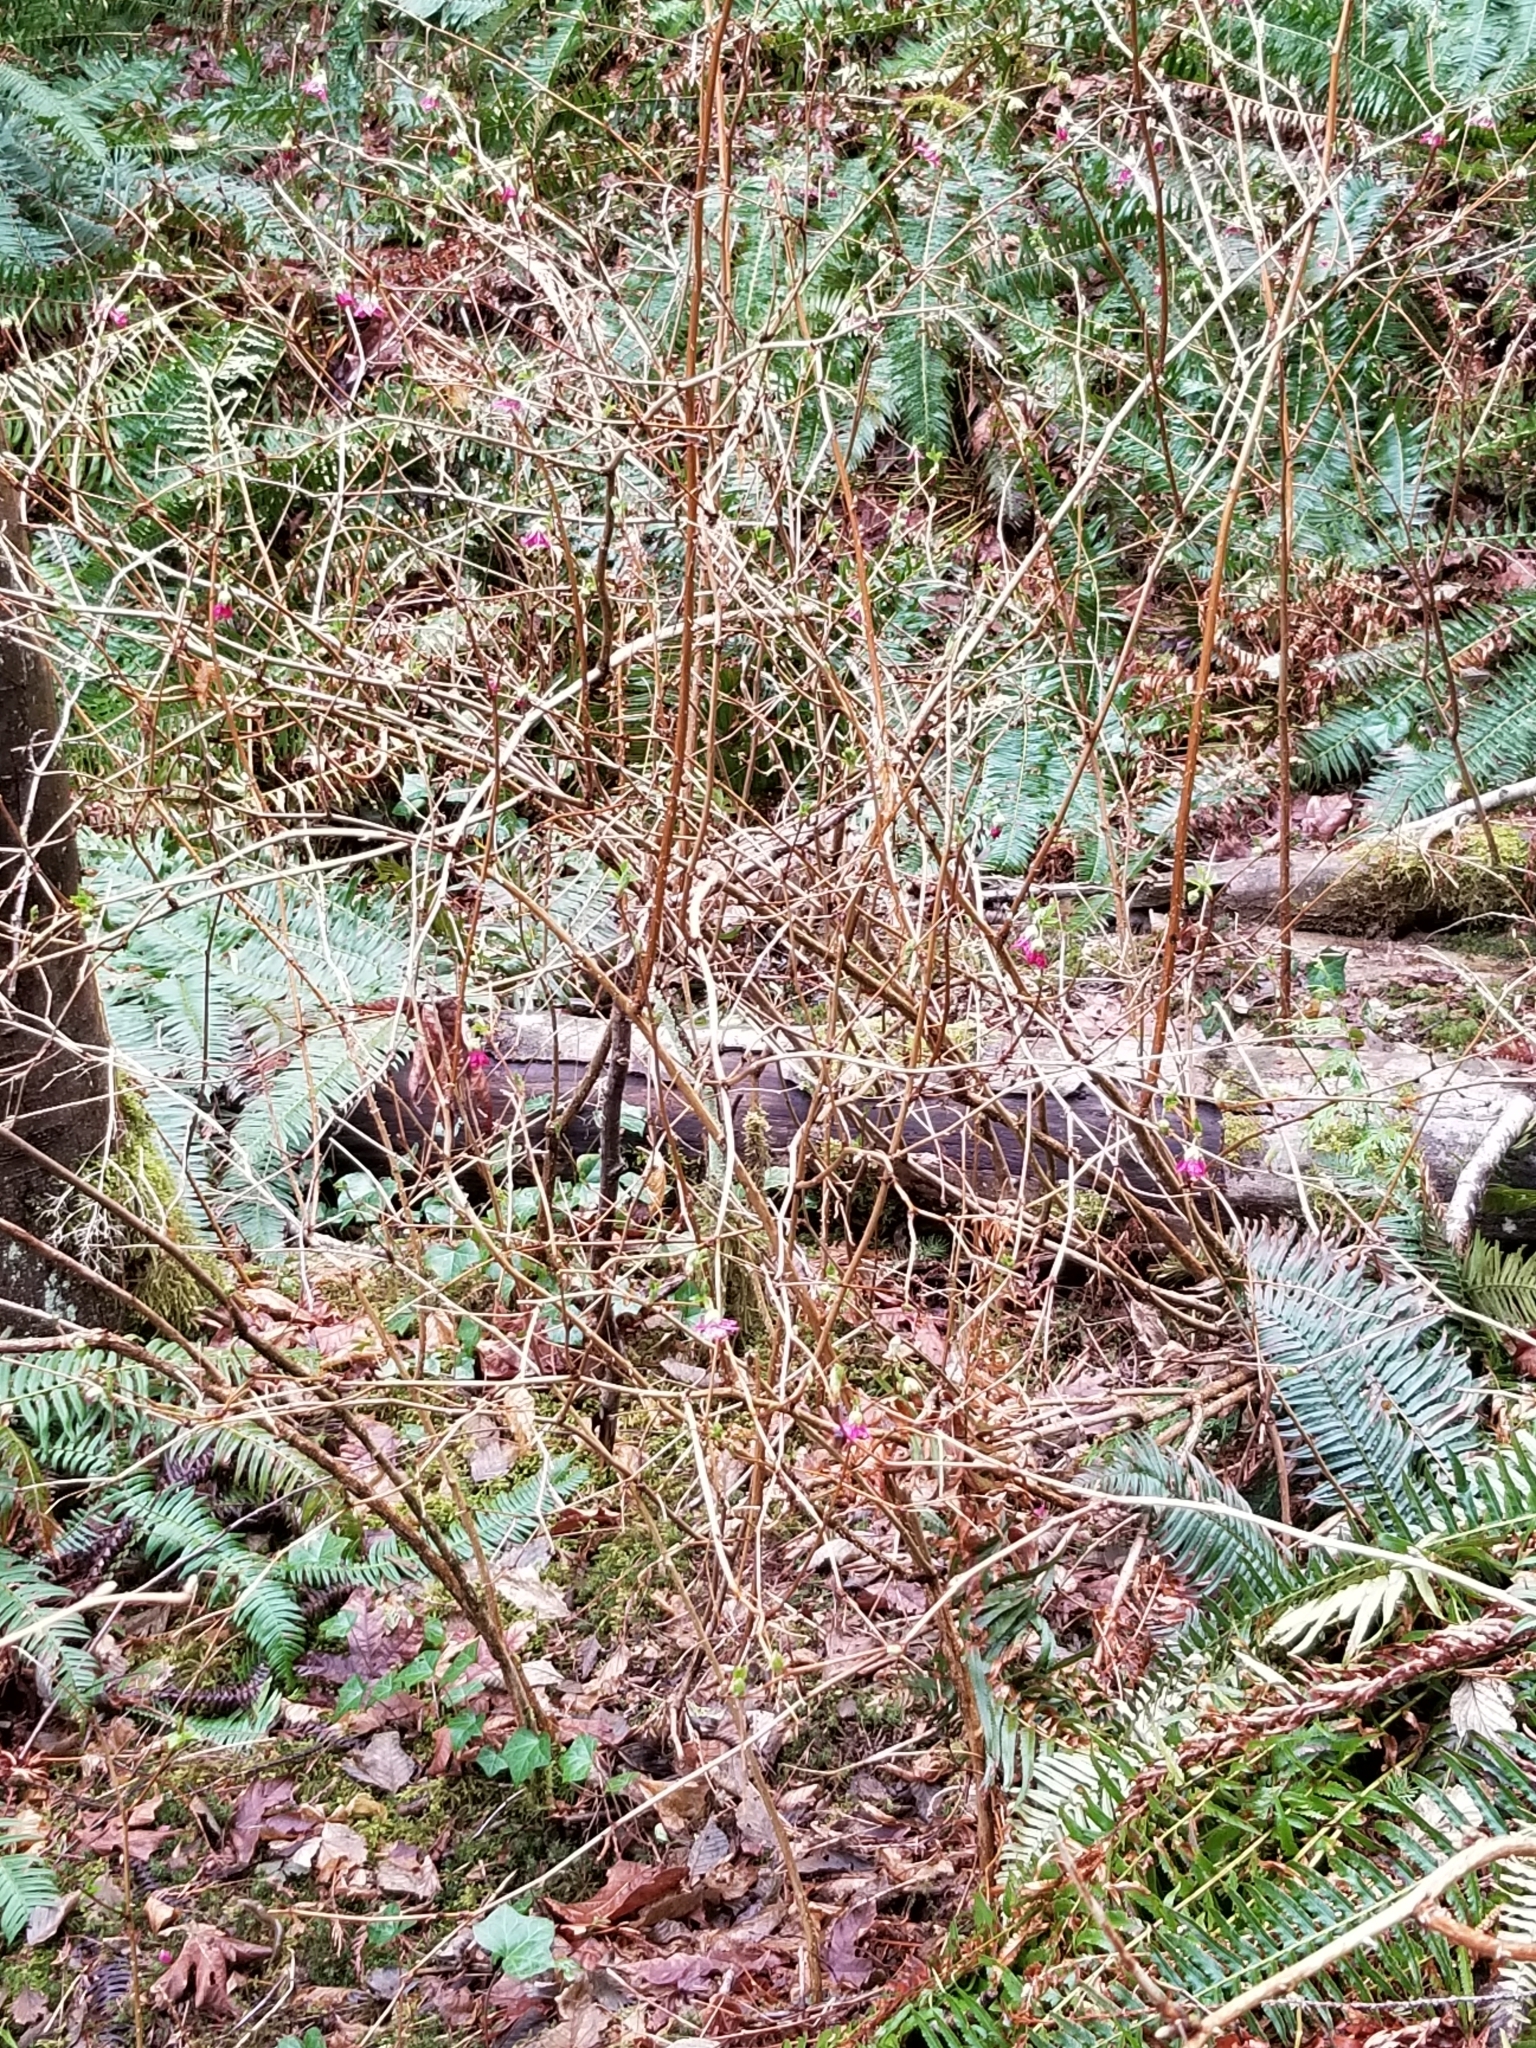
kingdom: Plantae
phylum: Tracheophyta
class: Magnoliopsida
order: Rosales
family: Rosaceae
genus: Rubus
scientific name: Rubus spectabilis
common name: Salmonberry
